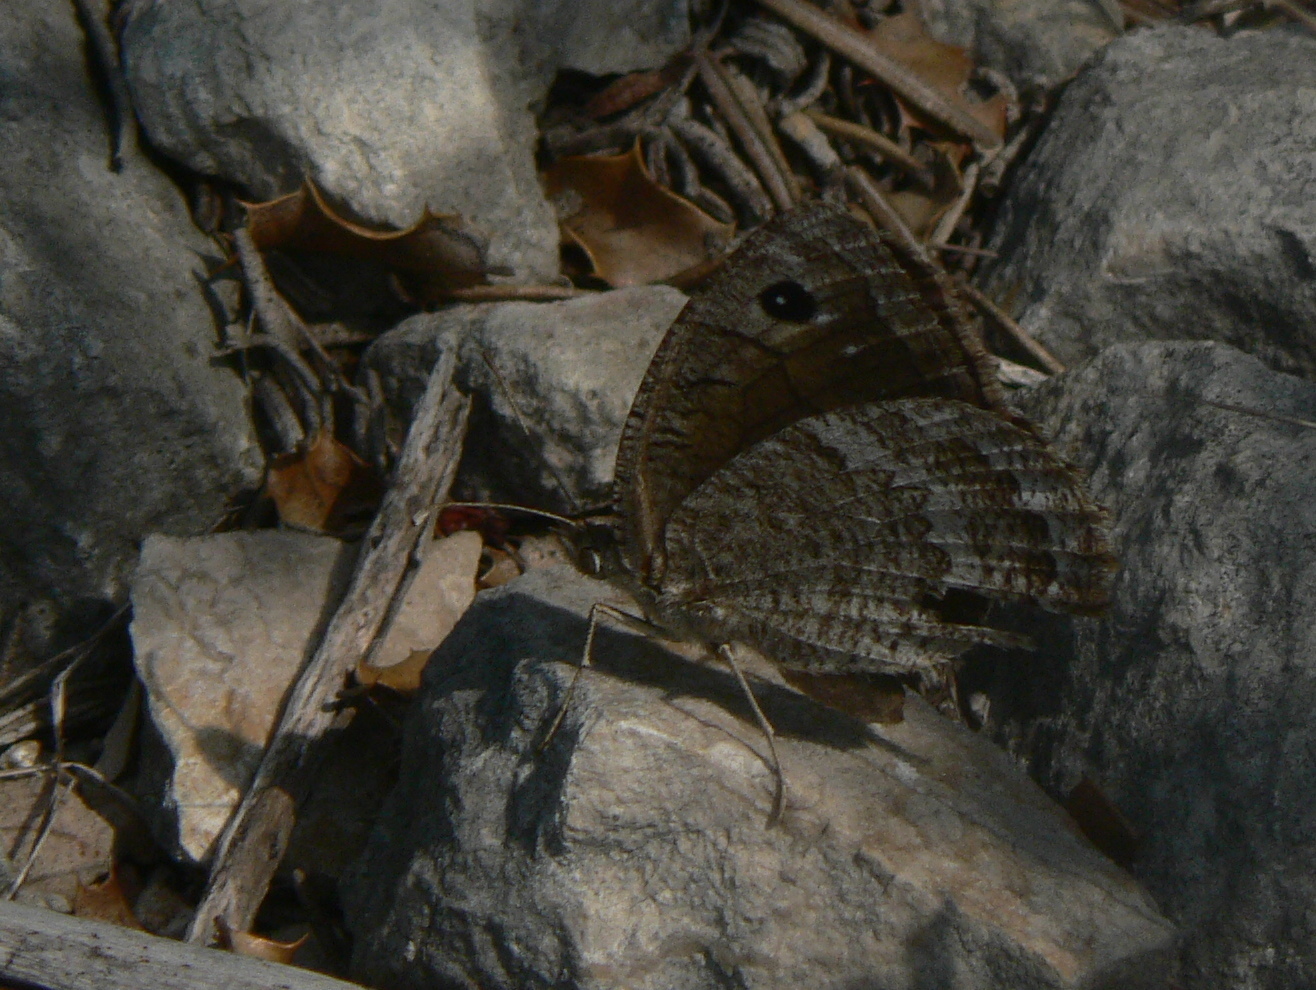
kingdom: Animalia
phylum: Arthropoda
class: Insecta
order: Lepidoptera
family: Nymphalidae
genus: Satyrus
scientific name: Satyrus actaea
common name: Black satyr
